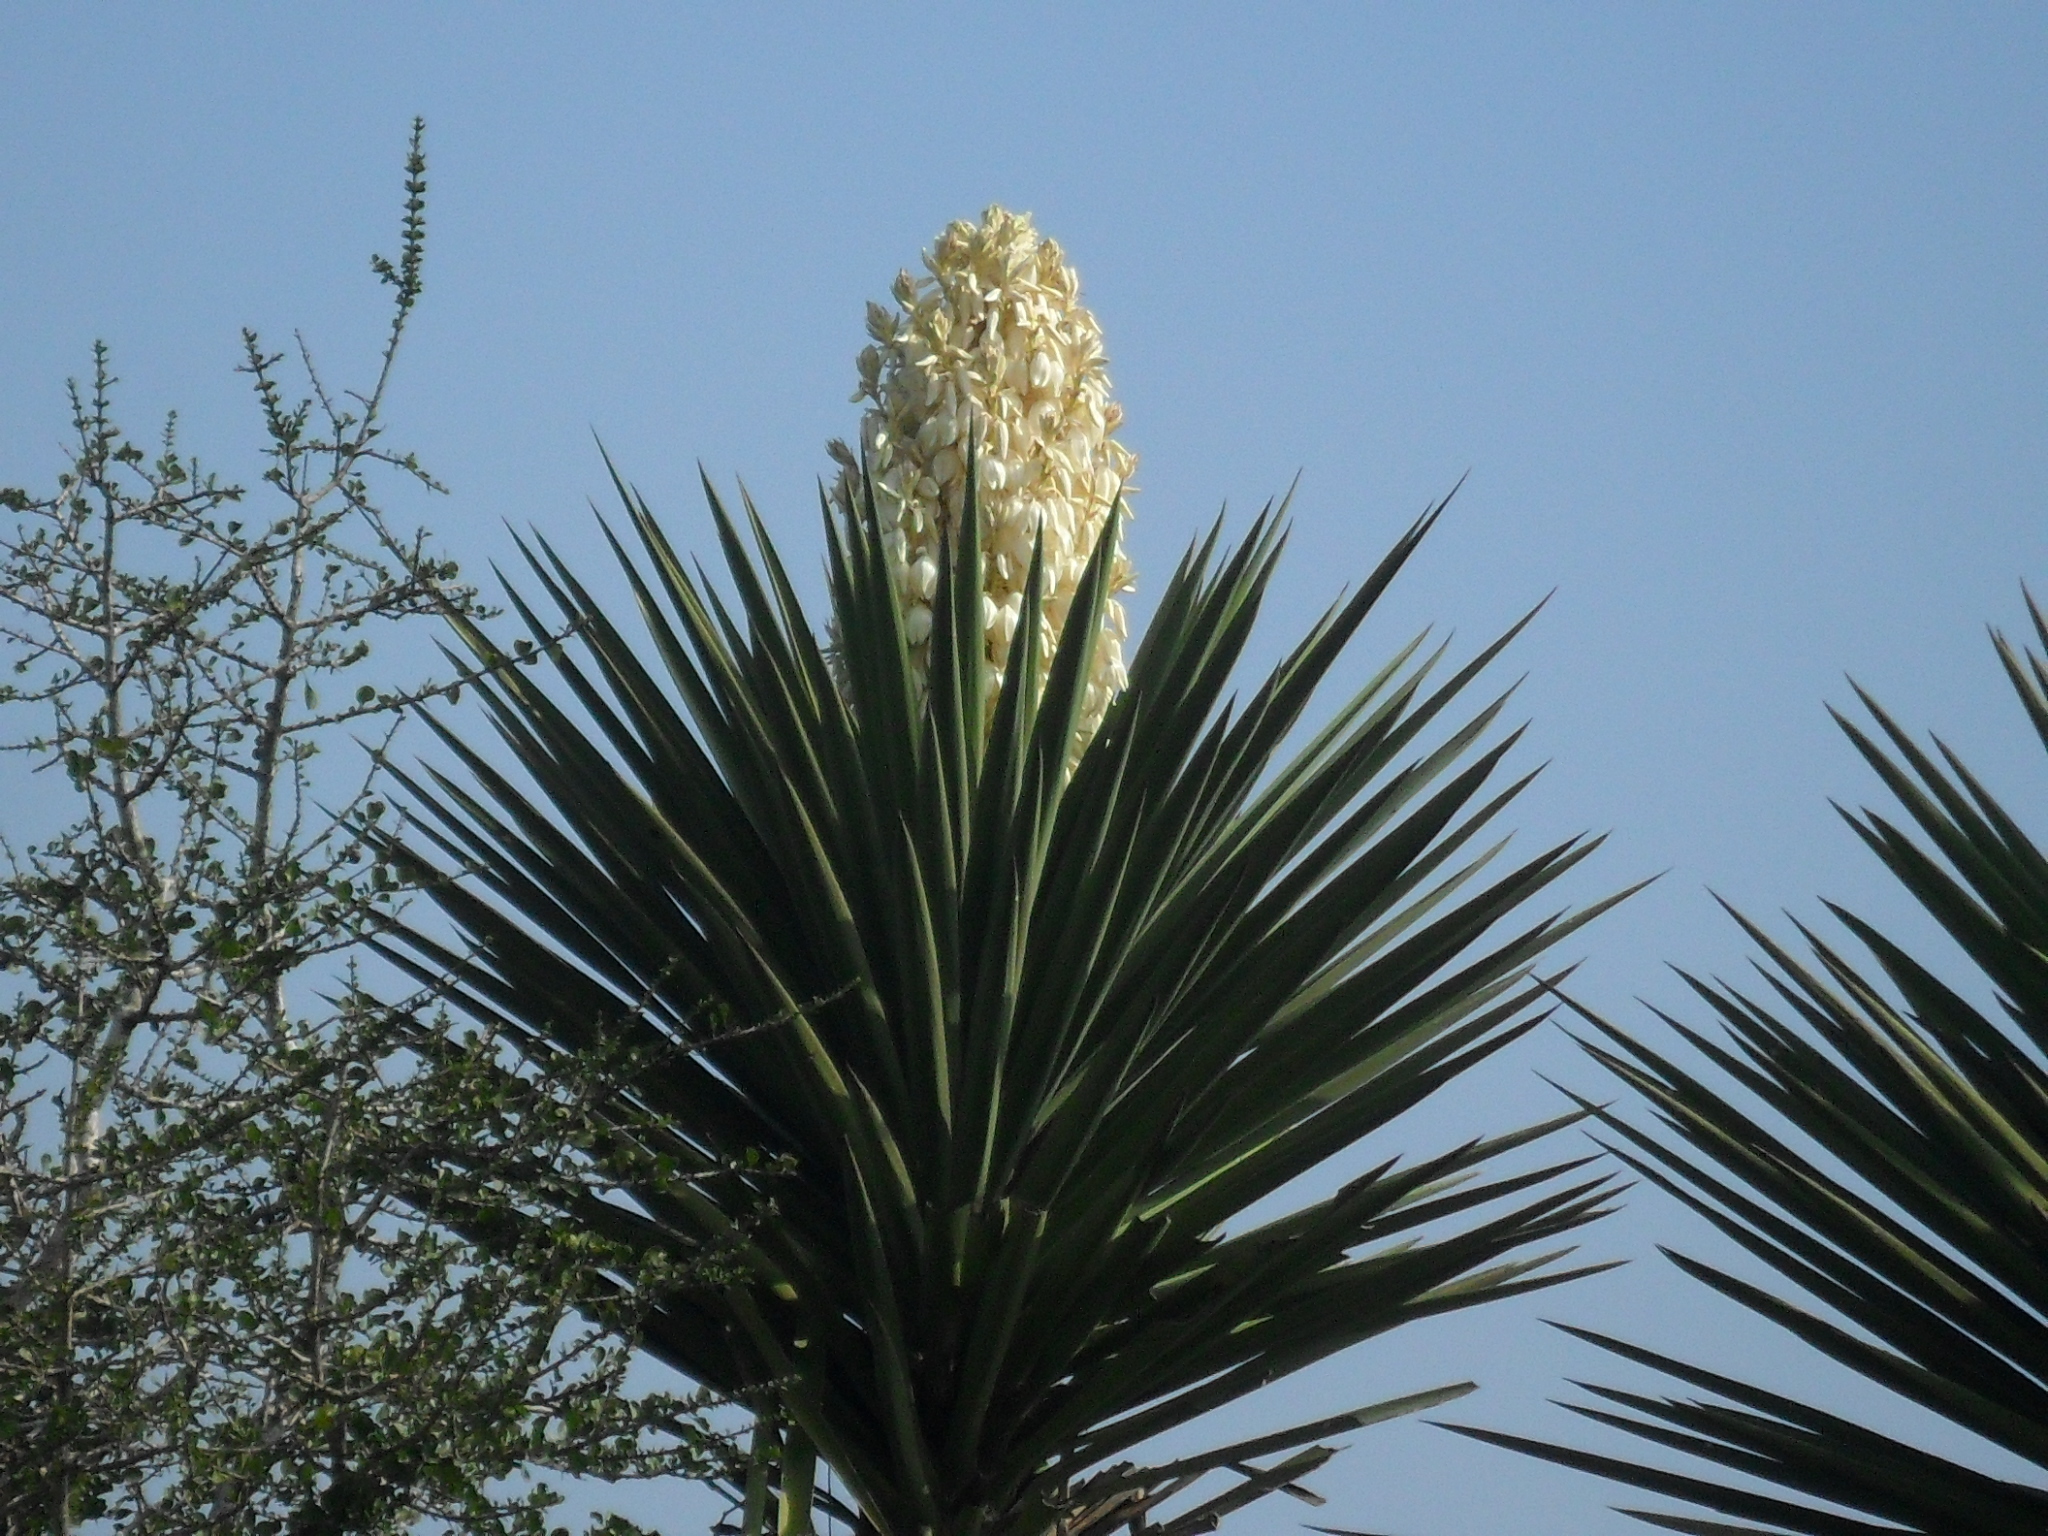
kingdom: Plantae
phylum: Tracheophyta
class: Liliopsida
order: Asparagales
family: Asparagaceae
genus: Yucca
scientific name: Yucca treculiana
